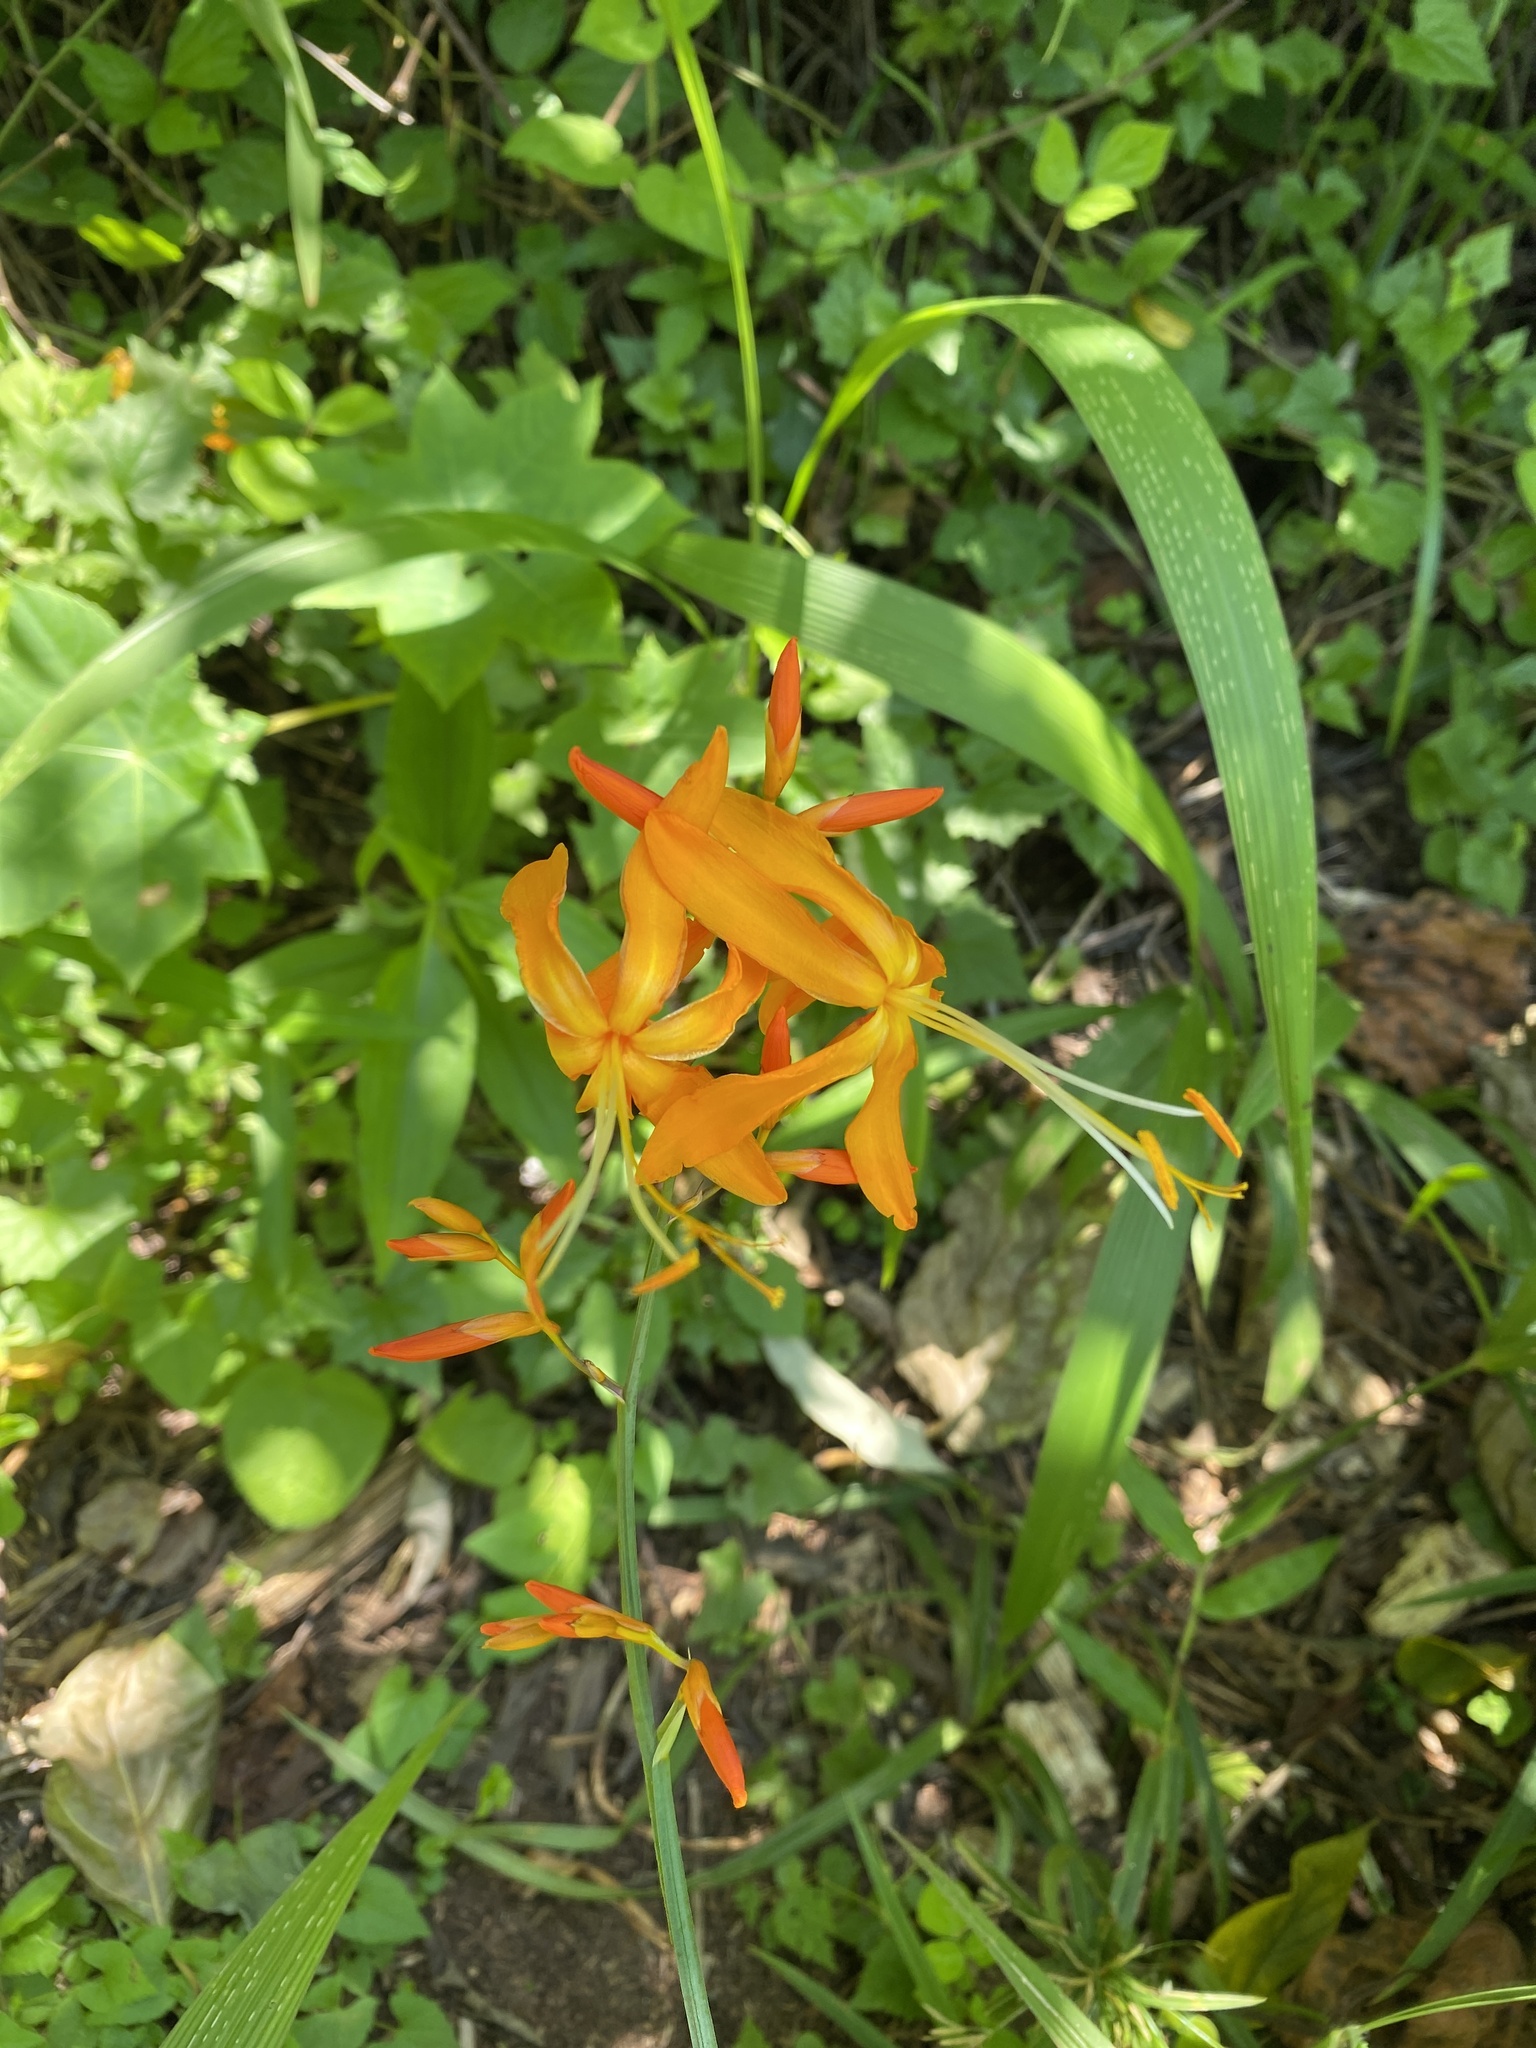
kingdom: Plantae
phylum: Tracheophyta
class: Liliopsida
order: Asparagales
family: Iridaceae
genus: Crocosmia
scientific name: Crocosmia aurea
